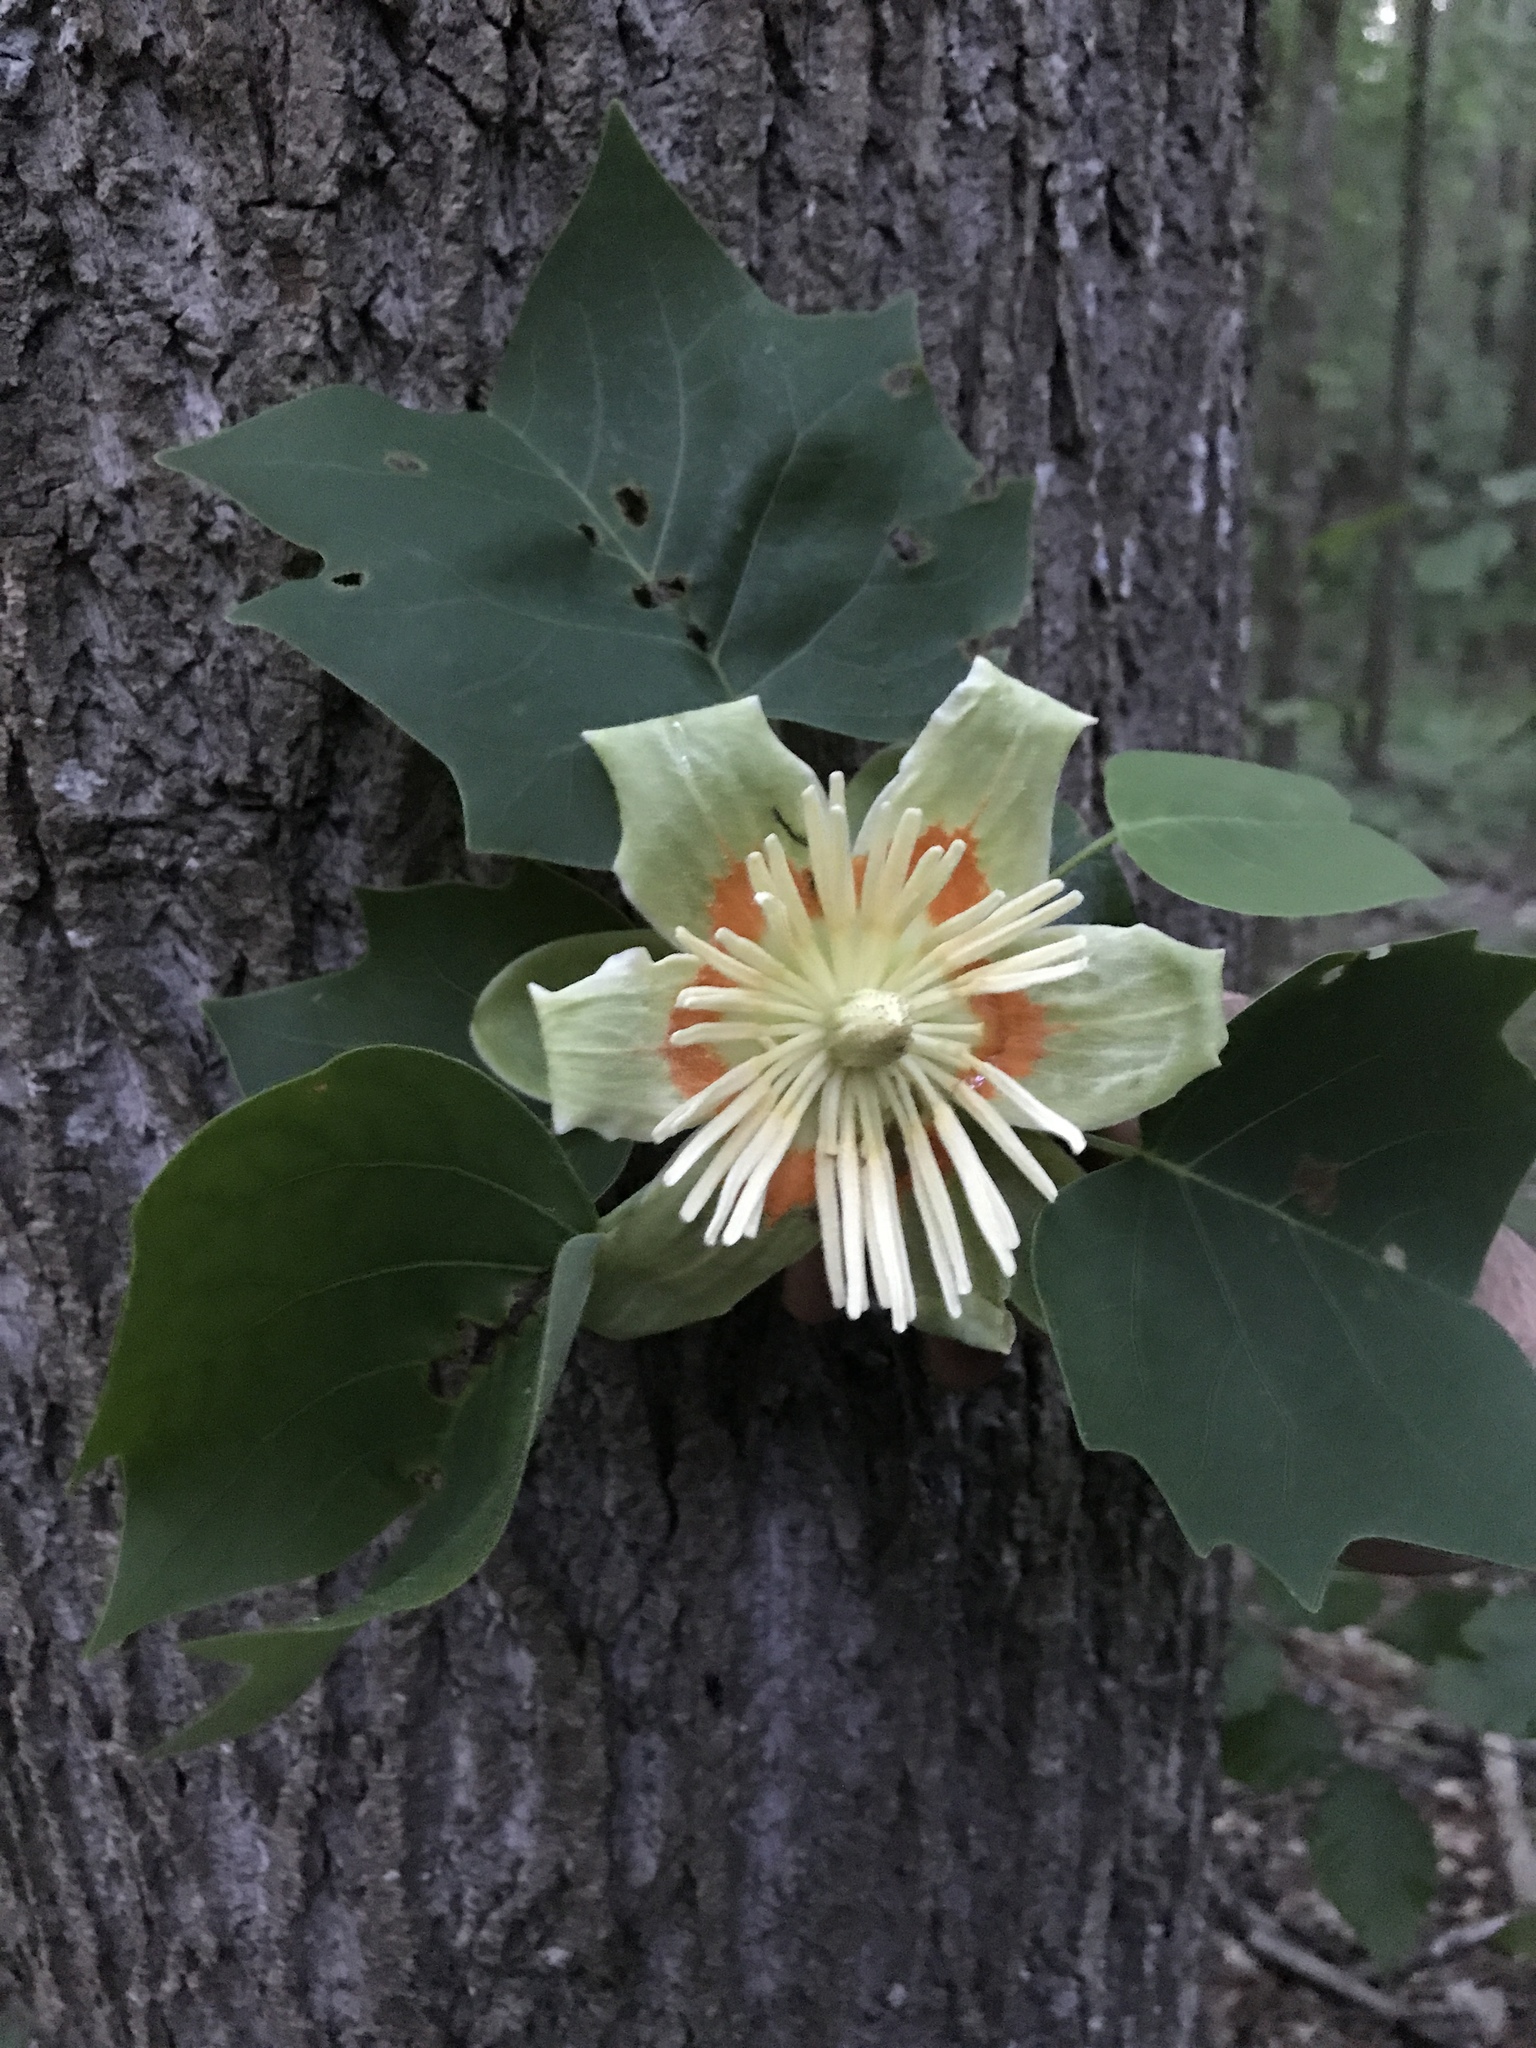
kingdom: Plantae
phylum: Tracheophyta
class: Magnoliopsida
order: Magnoliales
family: Magnoliaceae
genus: Liriodendron
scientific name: Liriodendron tulipifera
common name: Tulip tree
